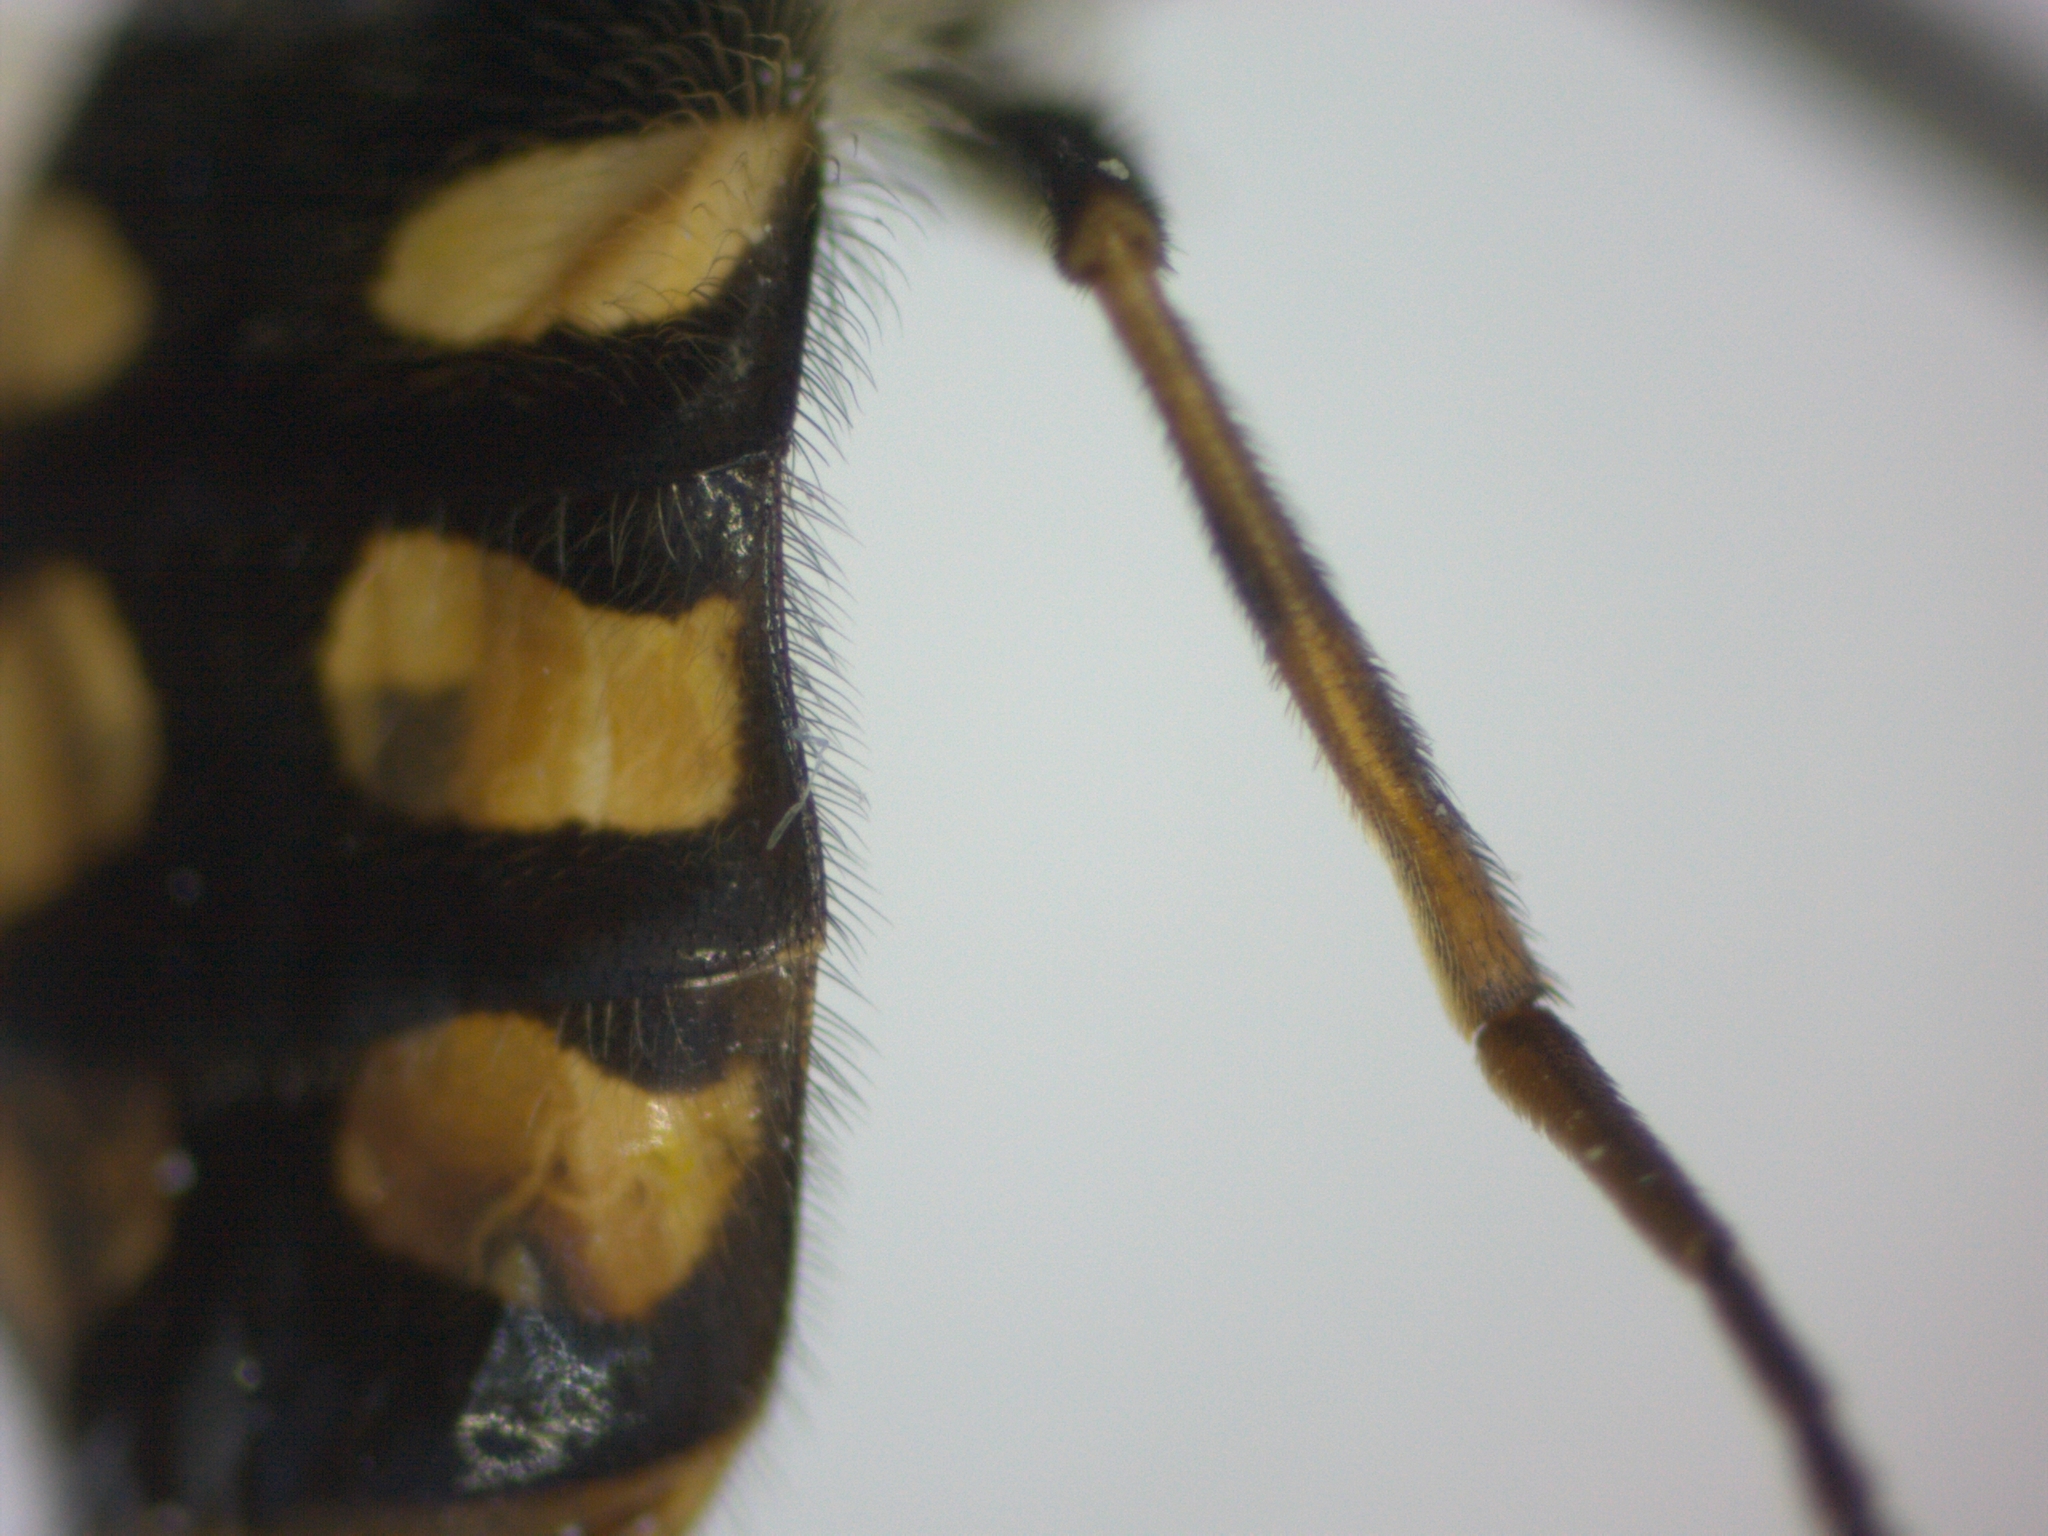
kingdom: Animalia
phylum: Arthropoda
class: Insecta
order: Diptera
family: Syrphidae
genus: Eupeodes
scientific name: Eupeodes corollae
